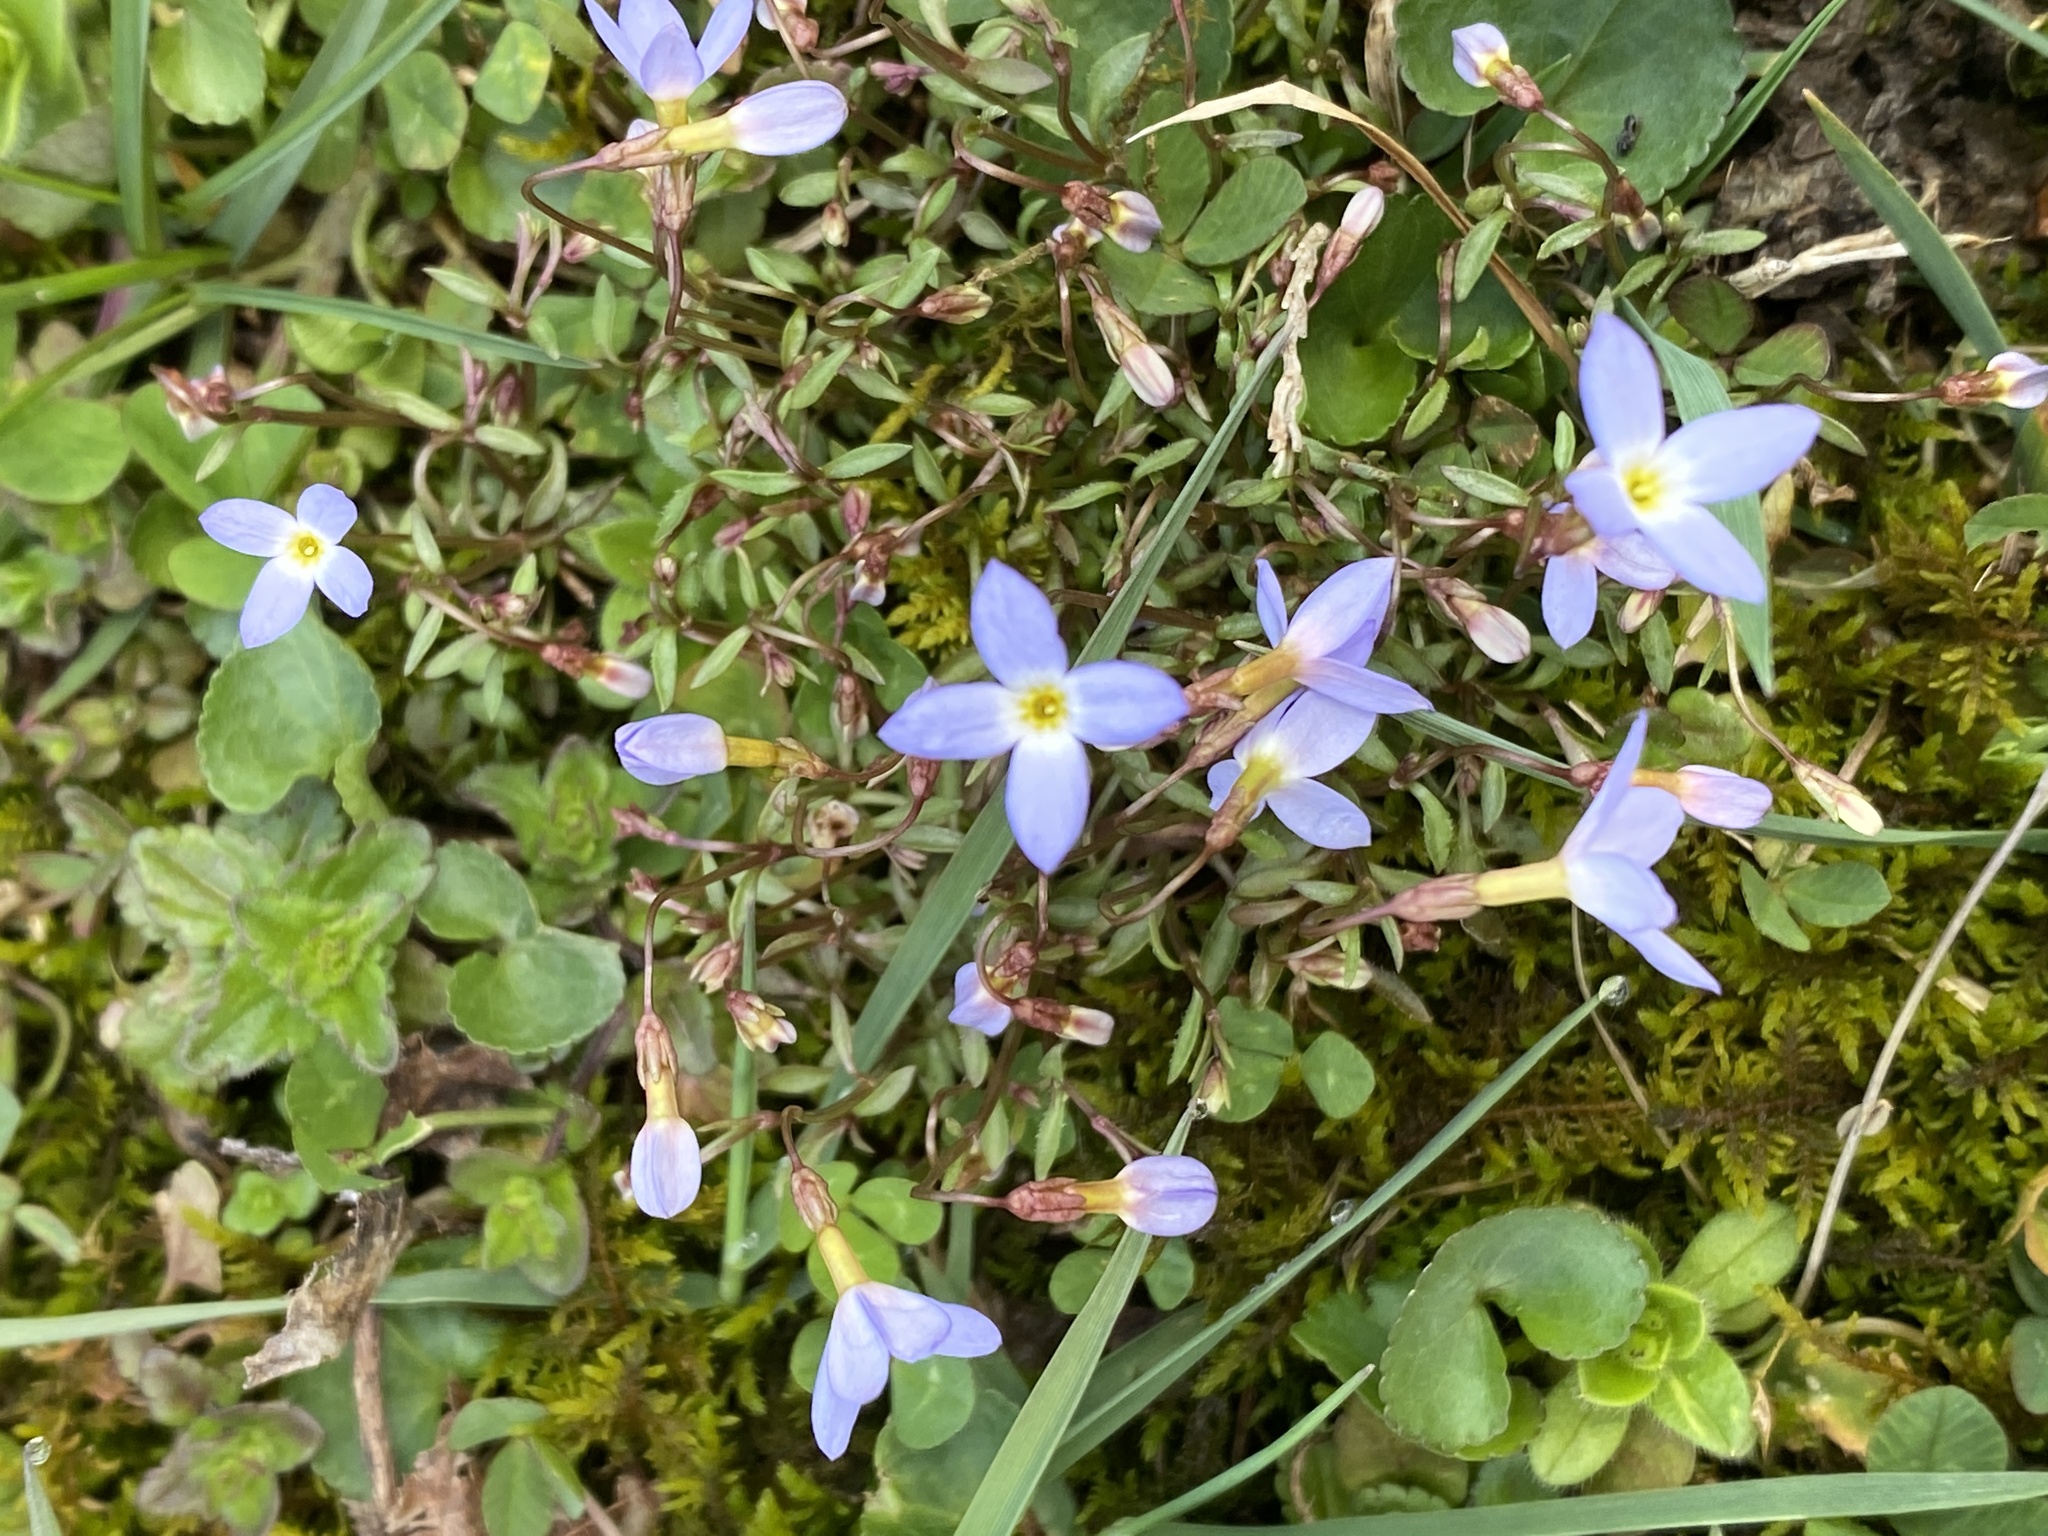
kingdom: Plantae
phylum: Tracheophyta
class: Magnoliopsida
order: Gentianales
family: Rubiaceae
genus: Houstonia
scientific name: Houstonia caerulea
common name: Bluets
